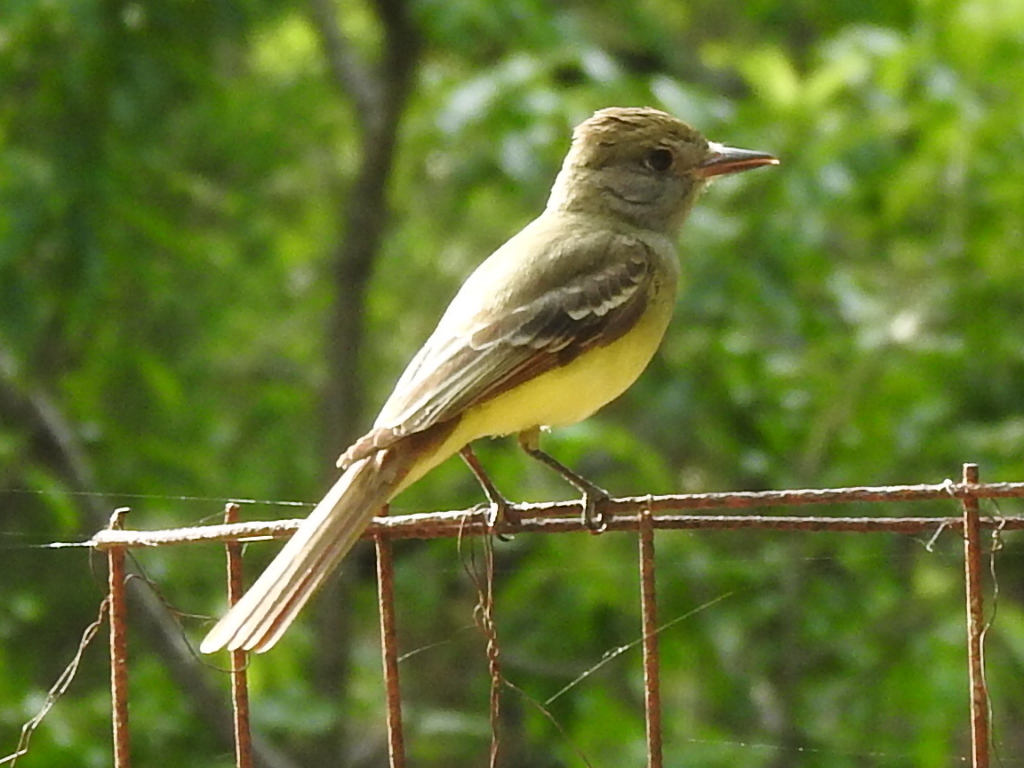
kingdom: Animalia
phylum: Chordata
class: Aves
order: Passeriformes
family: Tyrannidae
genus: Myiarchus
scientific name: Myiarchus crinitus
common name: Great crested flycatcher
